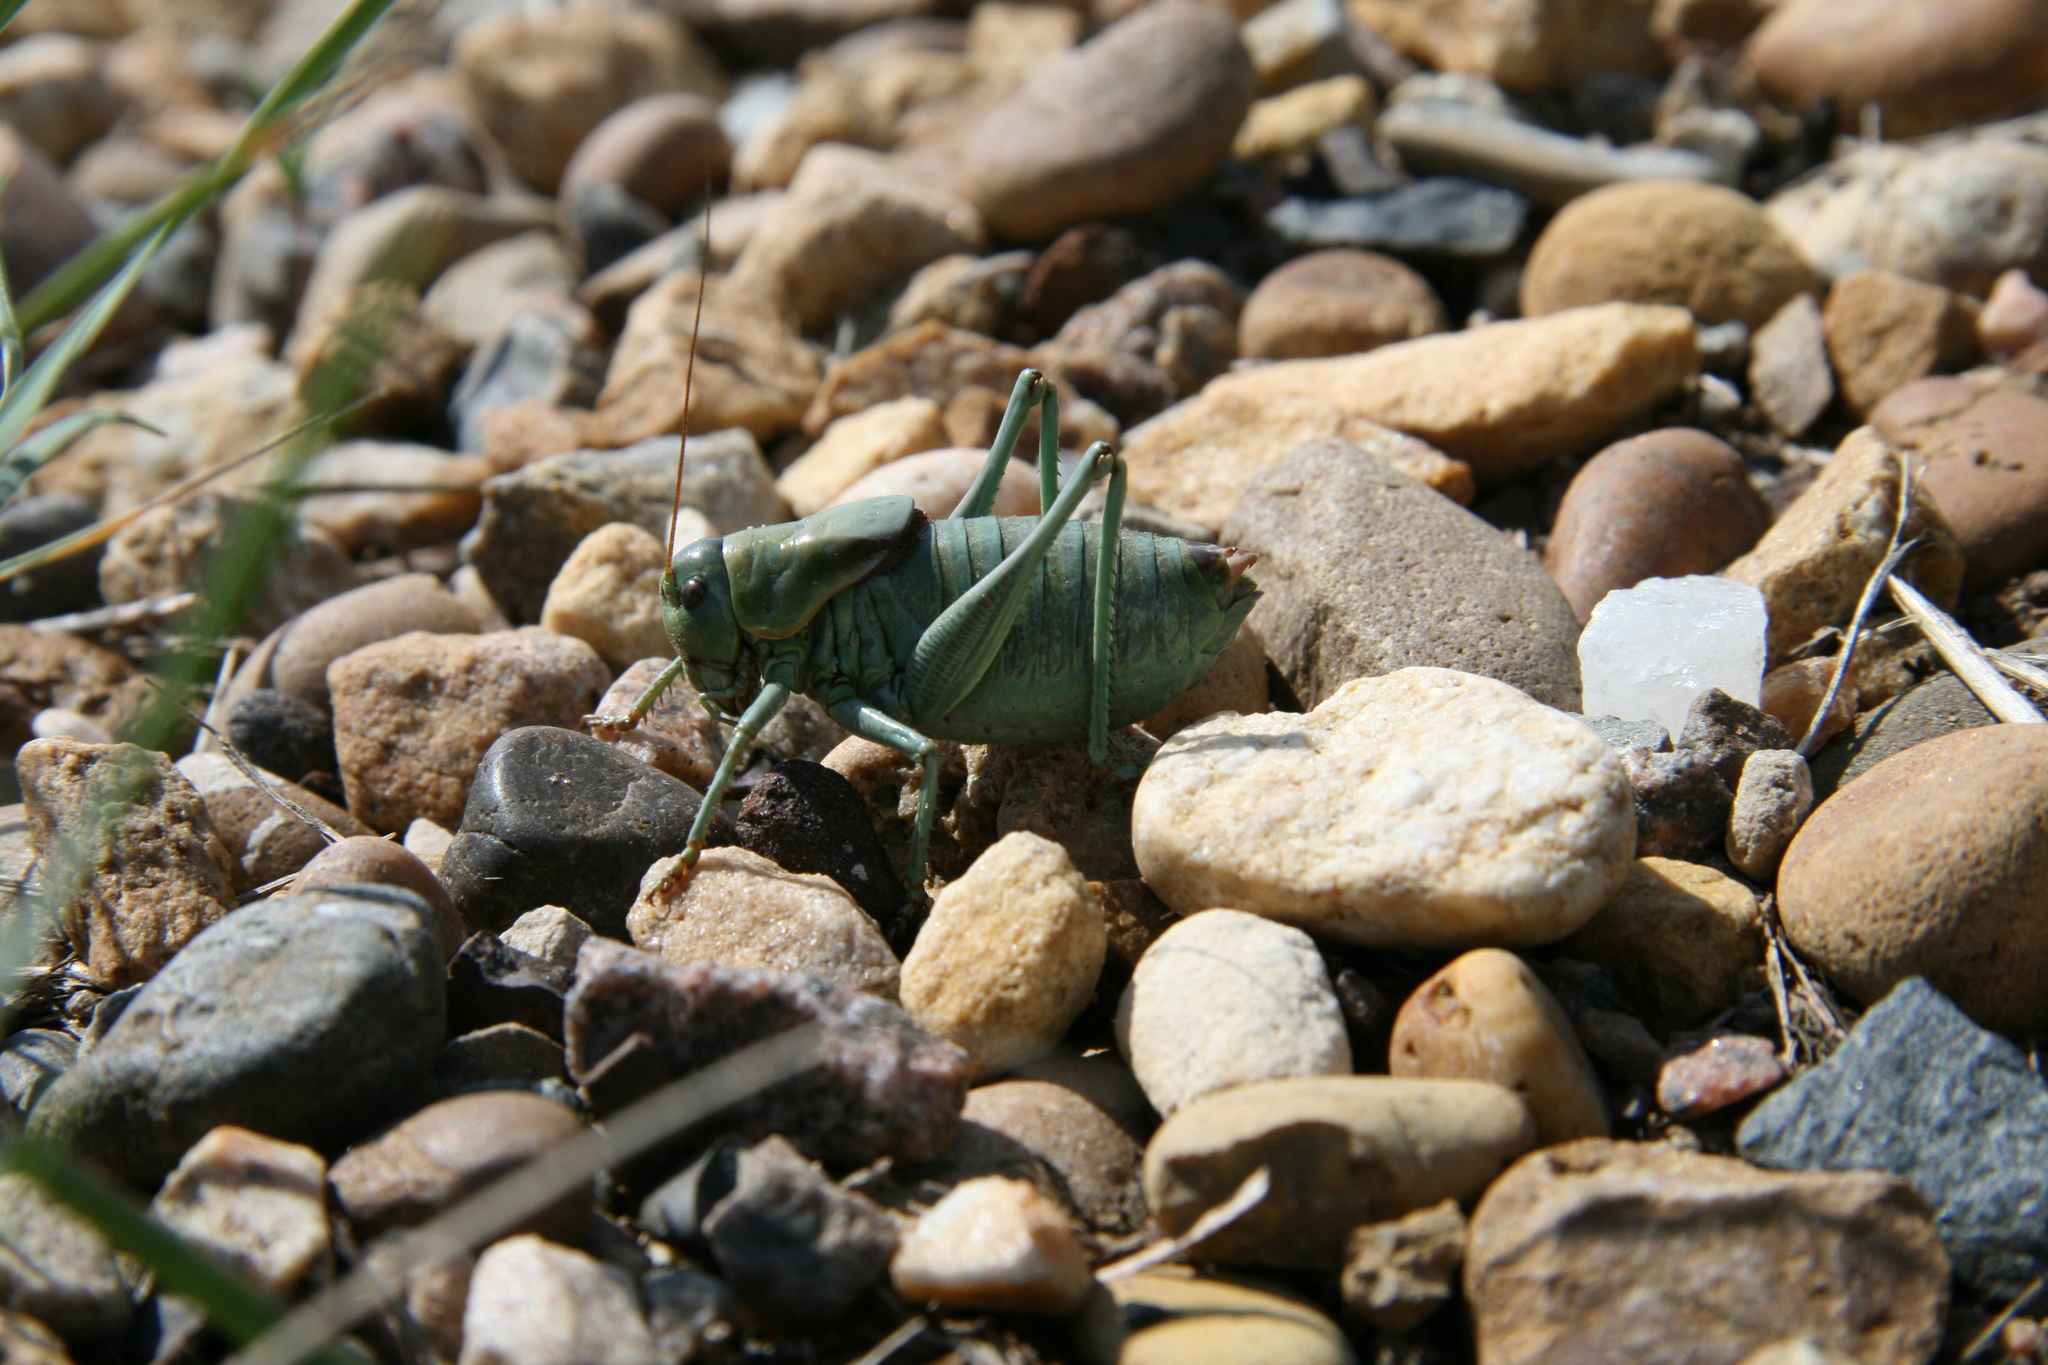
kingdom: Animalia
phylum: Arthropoda
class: Insecta
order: Orthoptera
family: Tettigoniidae
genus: Anabrus
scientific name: Anabrus simplex
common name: Mormon cricket
